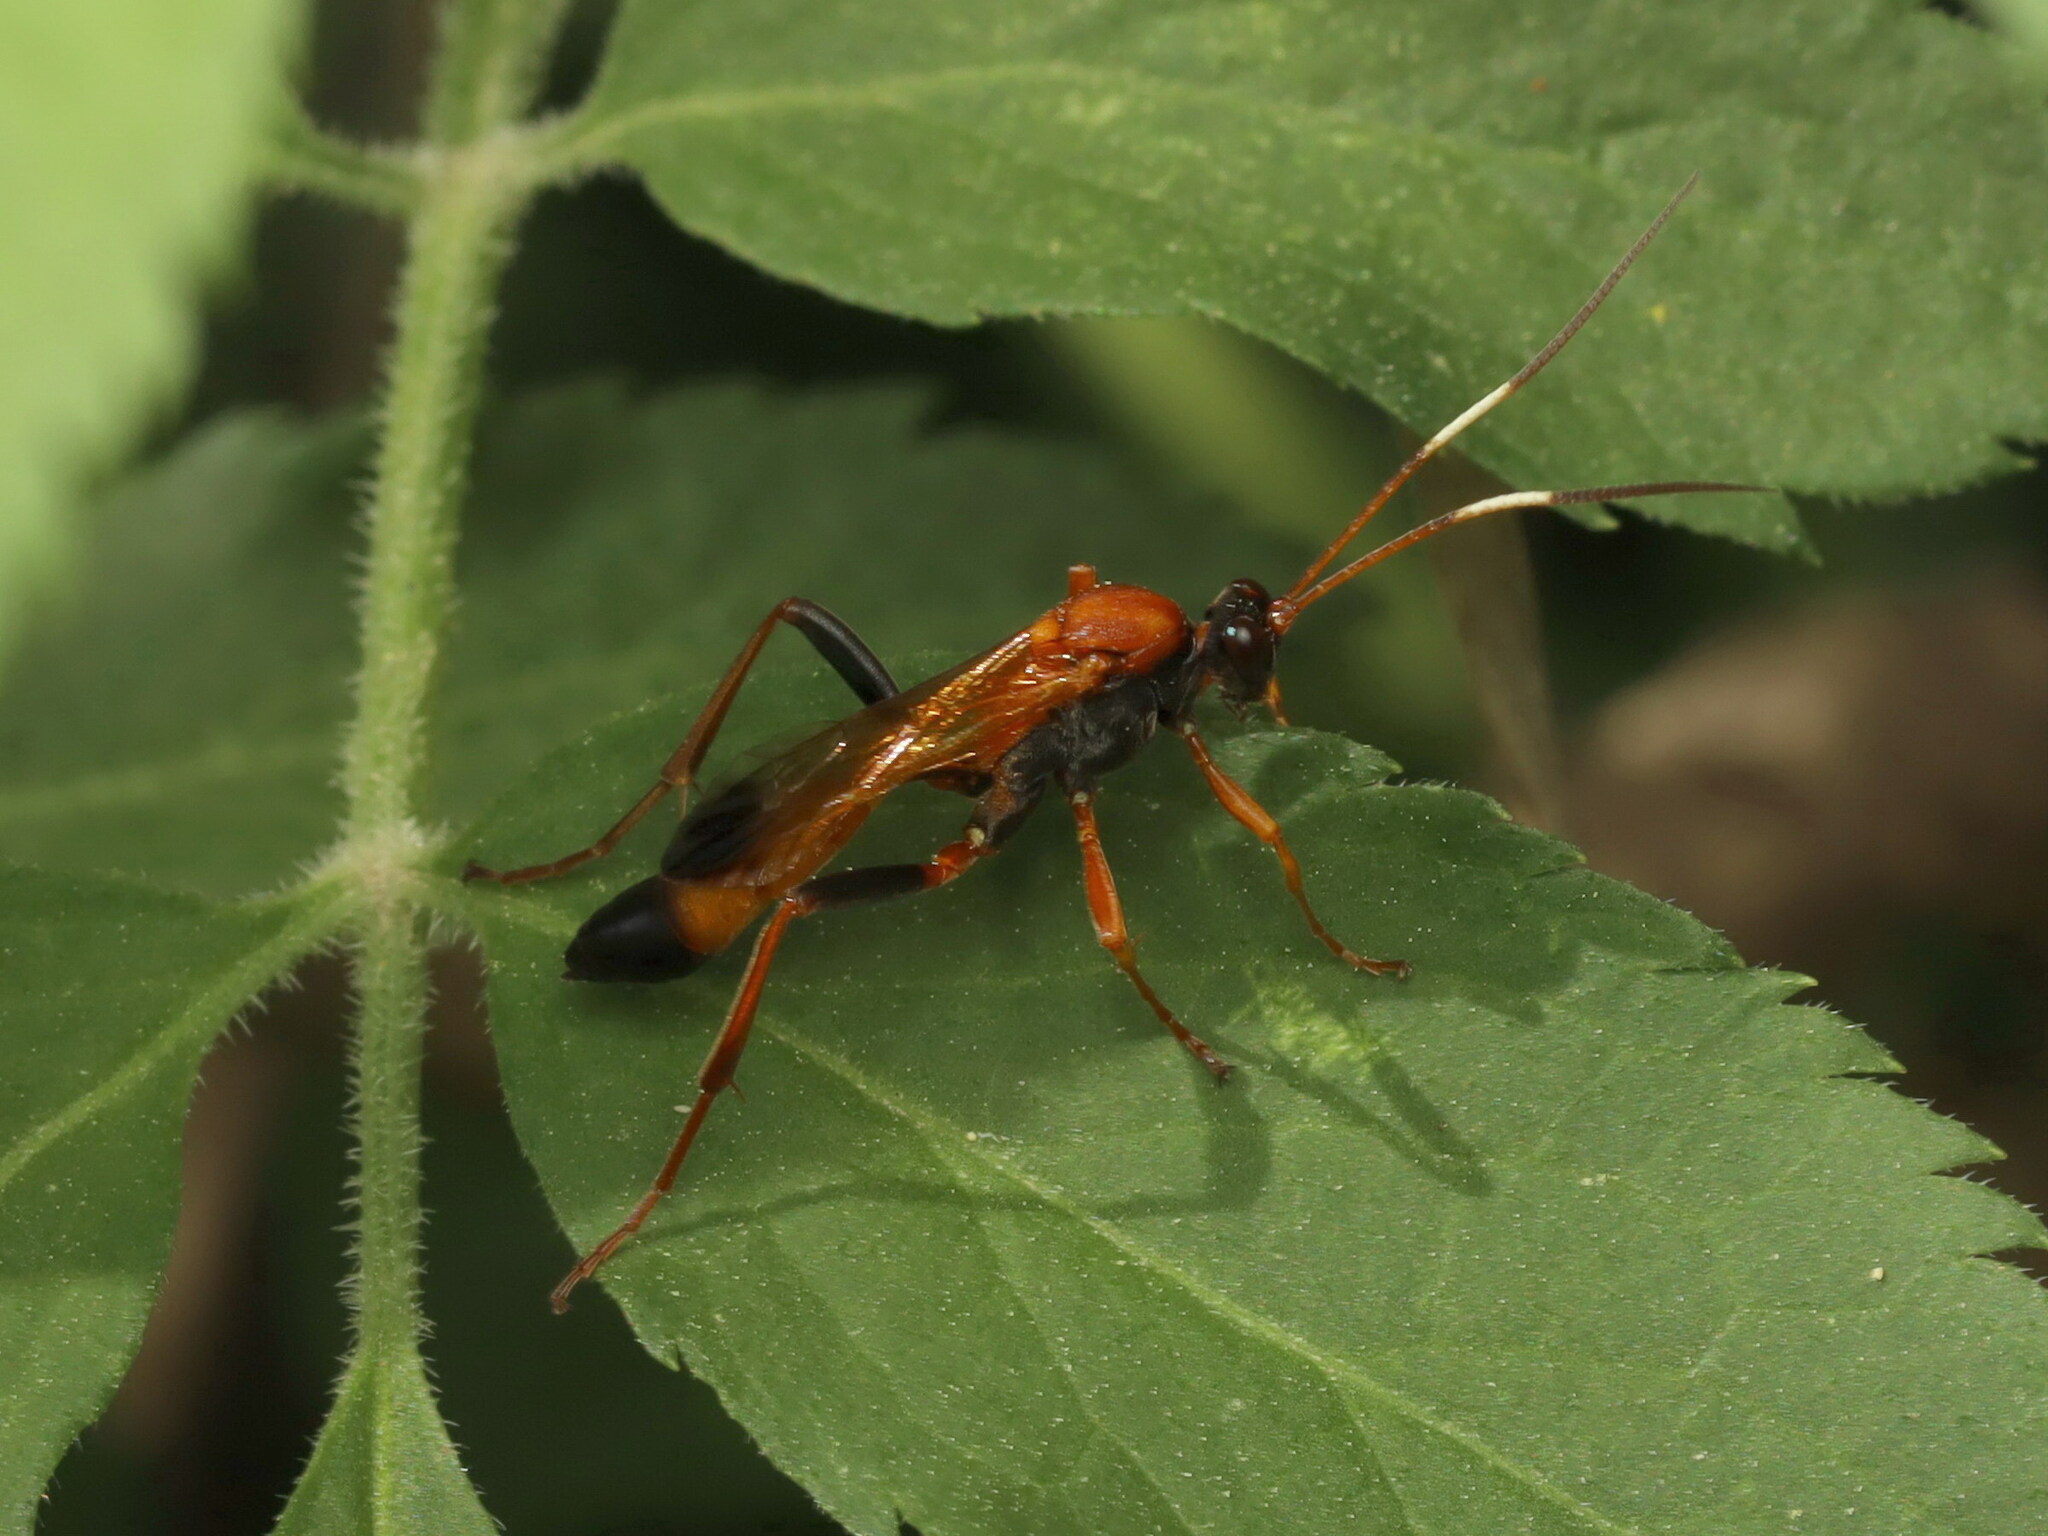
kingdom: Animalia
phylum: Arthropoda
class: Insecta
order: Hymenoptera
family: Ichneumonidae
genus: Ctenochares
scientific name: Ctenochares bicolorus
